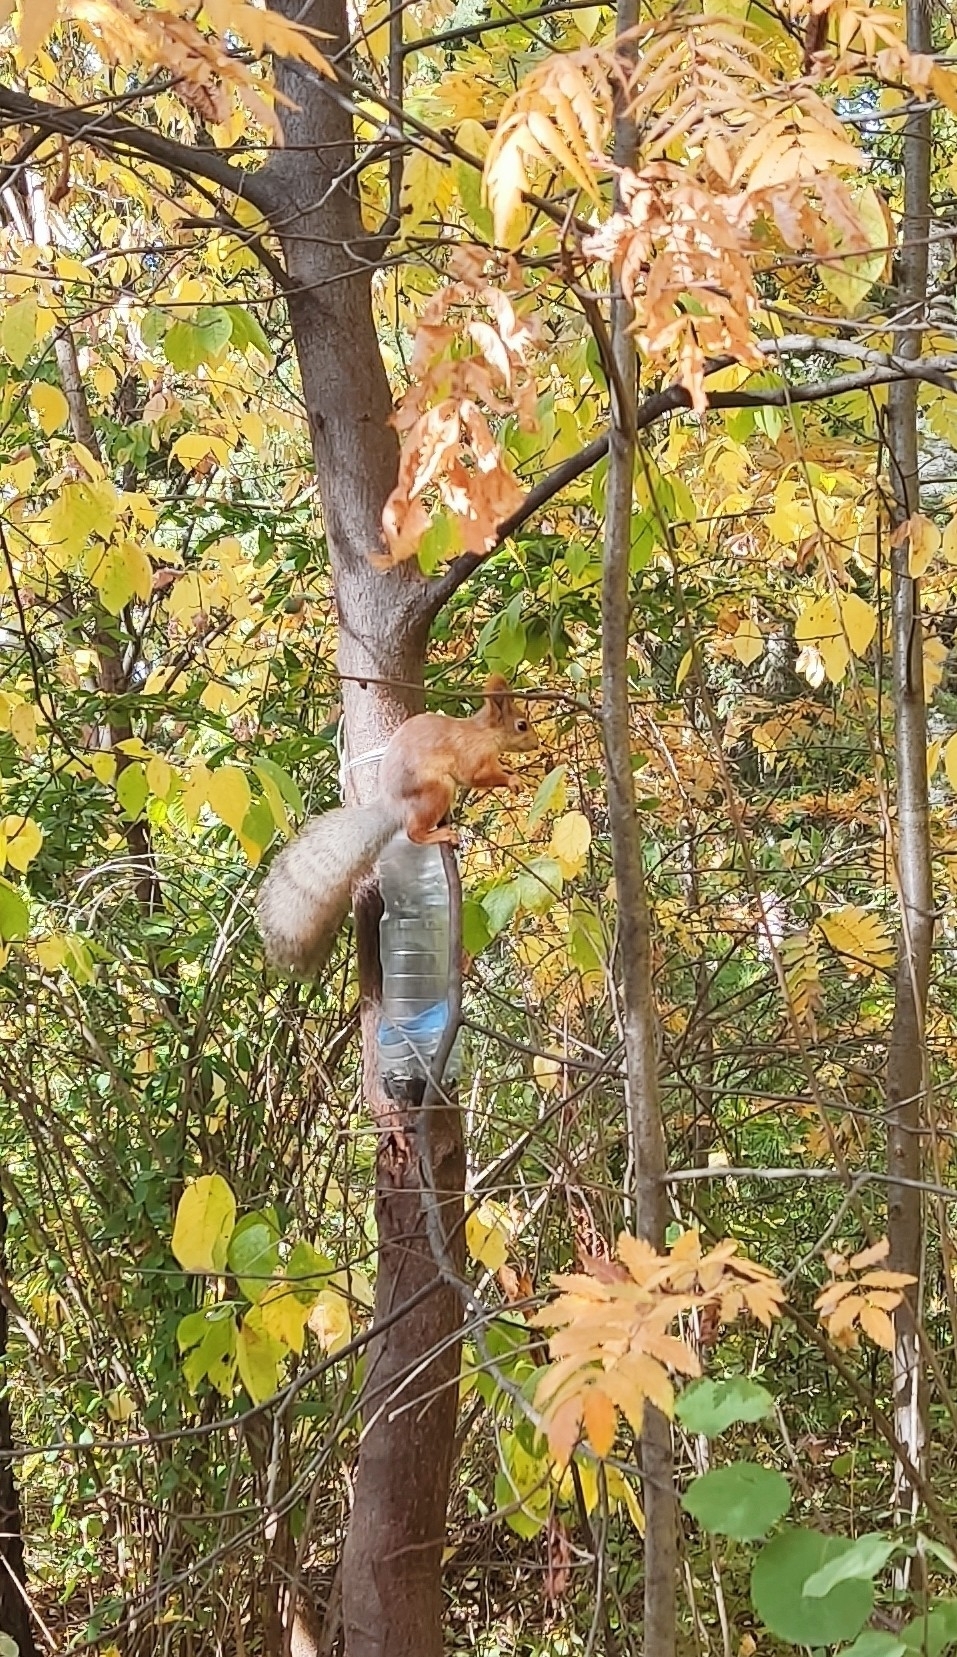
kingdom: Animalia
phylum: Chordata
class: Mammalia
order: Rodentia
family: Sciuridae
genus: Sciurus
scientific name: Sciurus vulgaris
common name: Eurasian red squirrel
